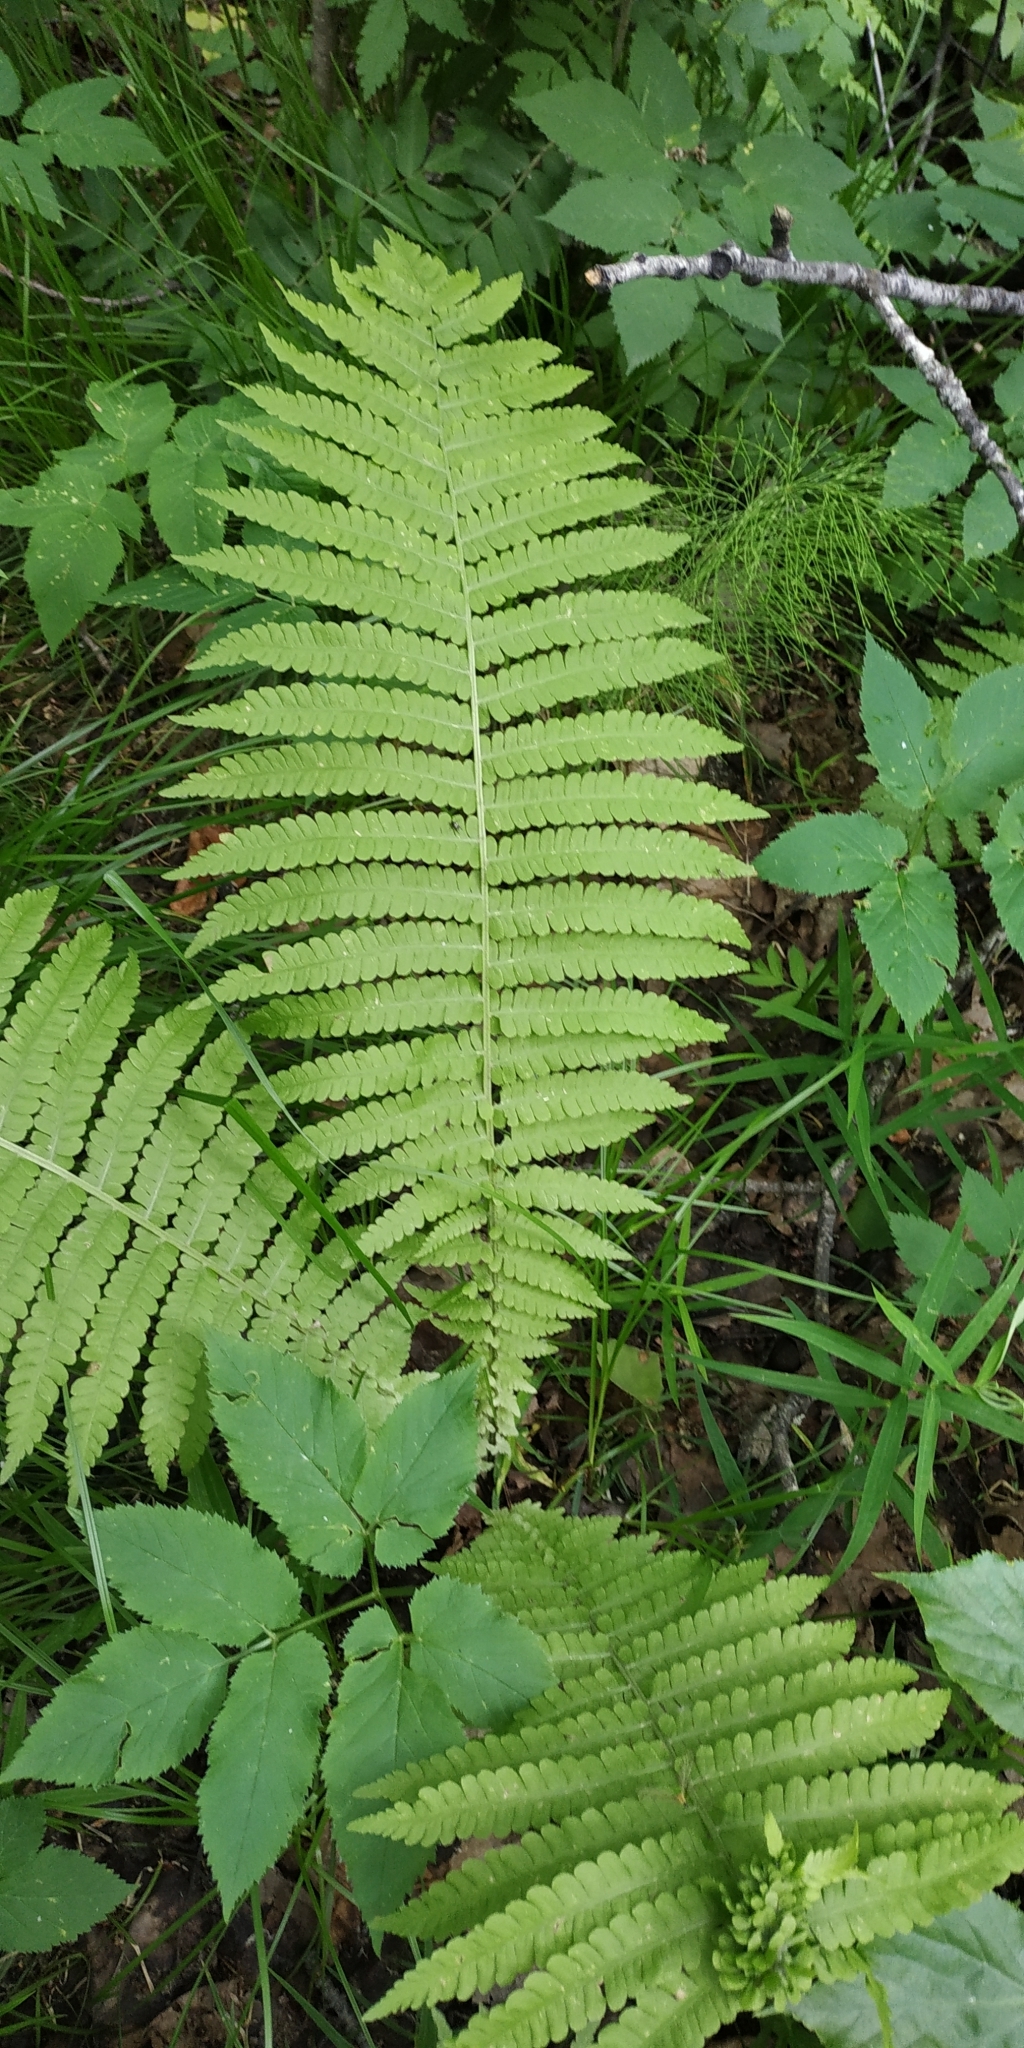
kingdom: Plantae
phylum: Tracheophyta
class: Polypodiopsida
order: Polypodiales
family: Onocleaceae
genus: Matteuccia
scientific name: Matteuccia struthiopteris
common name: Ostrich fern
